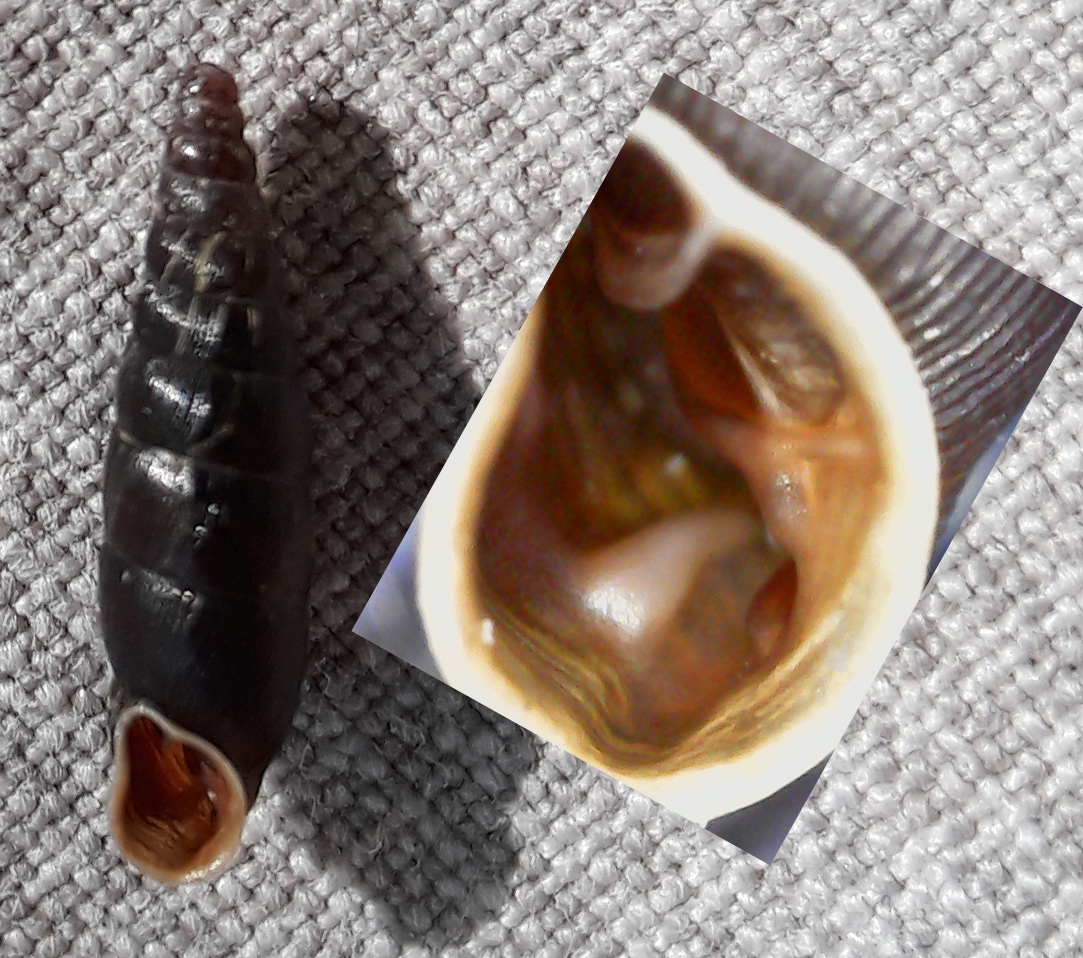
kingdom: Animalia
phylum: Mollusca
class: Gastropoda
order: Stylommatophora
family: Clausiliidae
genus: Clausilia
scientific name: Clausilia bidentata
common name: Two-toothed door snail
